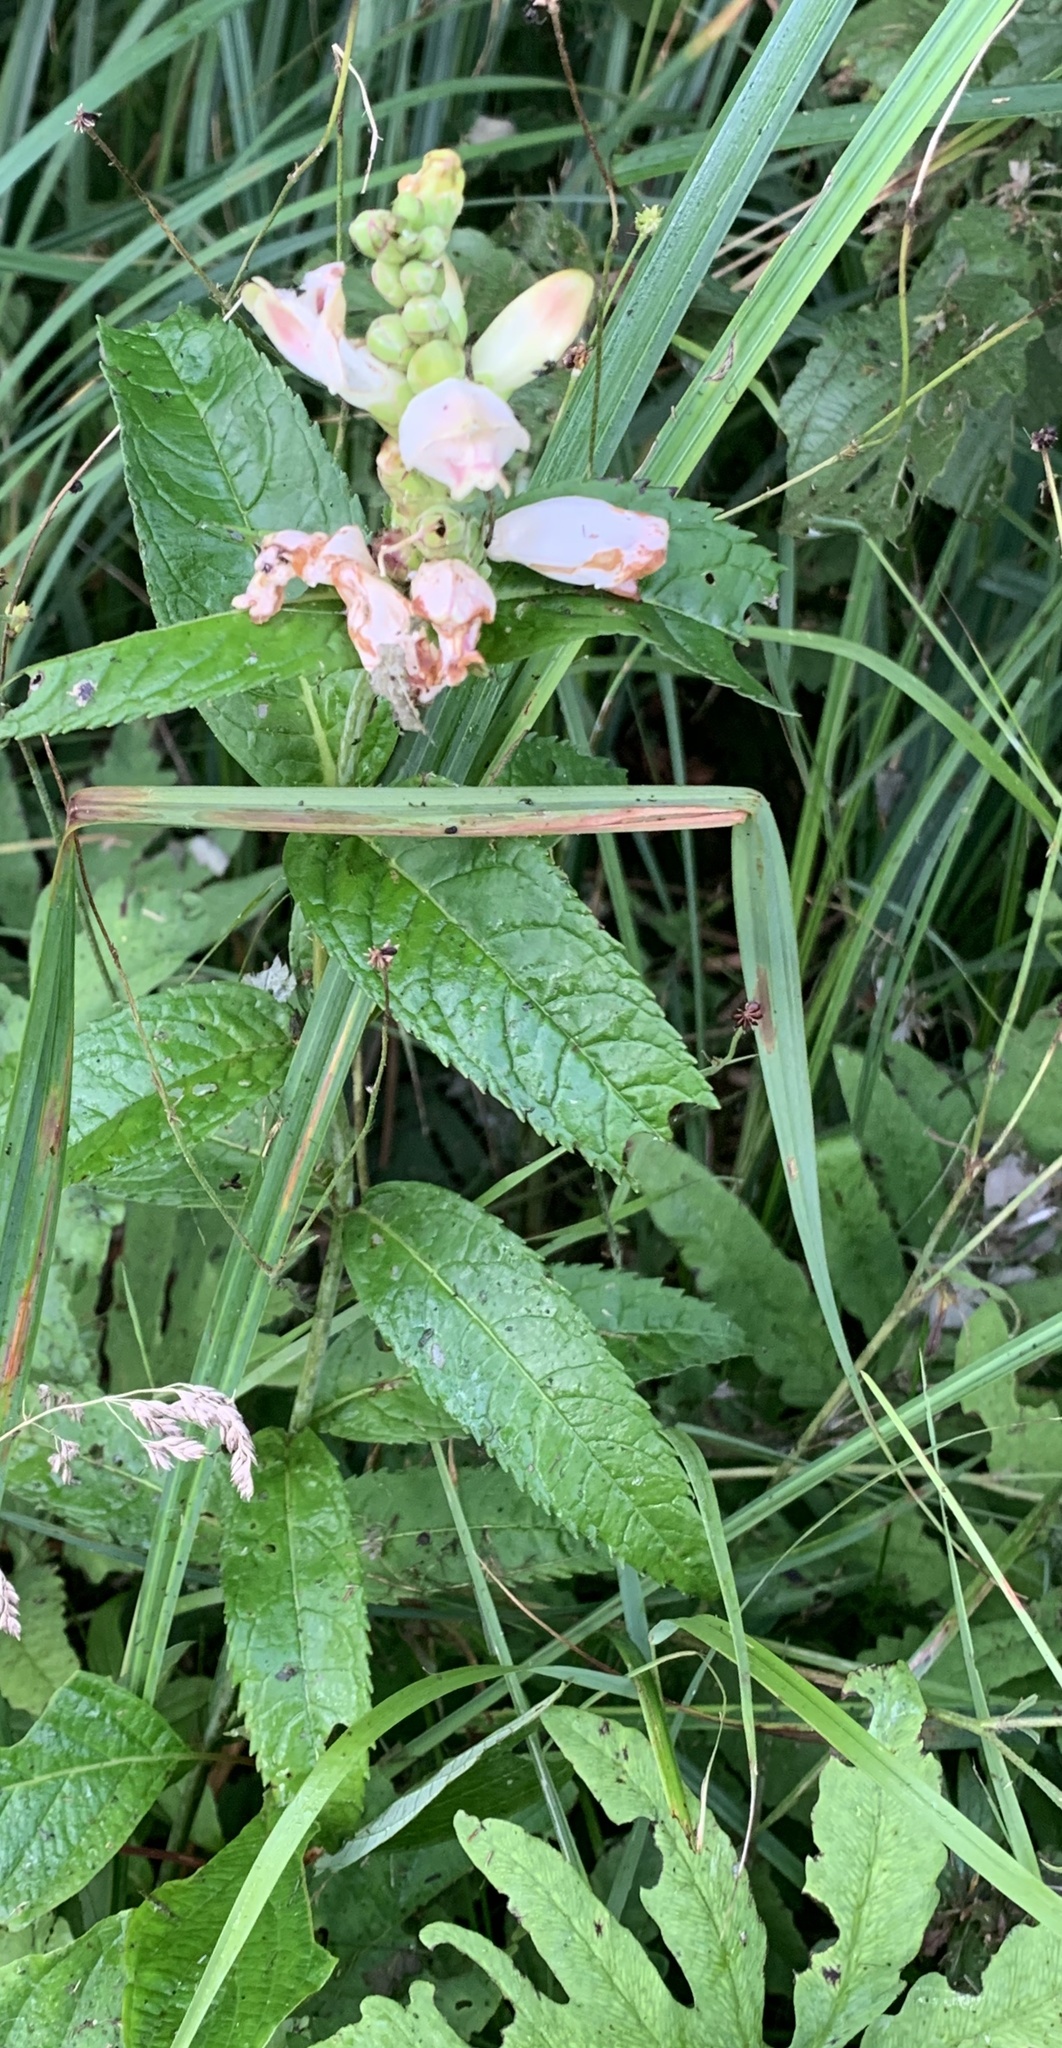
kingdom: Plantae
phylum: Tracheophyta
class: Magnoliopsida
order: Lamiales
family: Plantaginaceae
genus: Chelone
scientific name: Chelone glabra
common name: Snakehead
